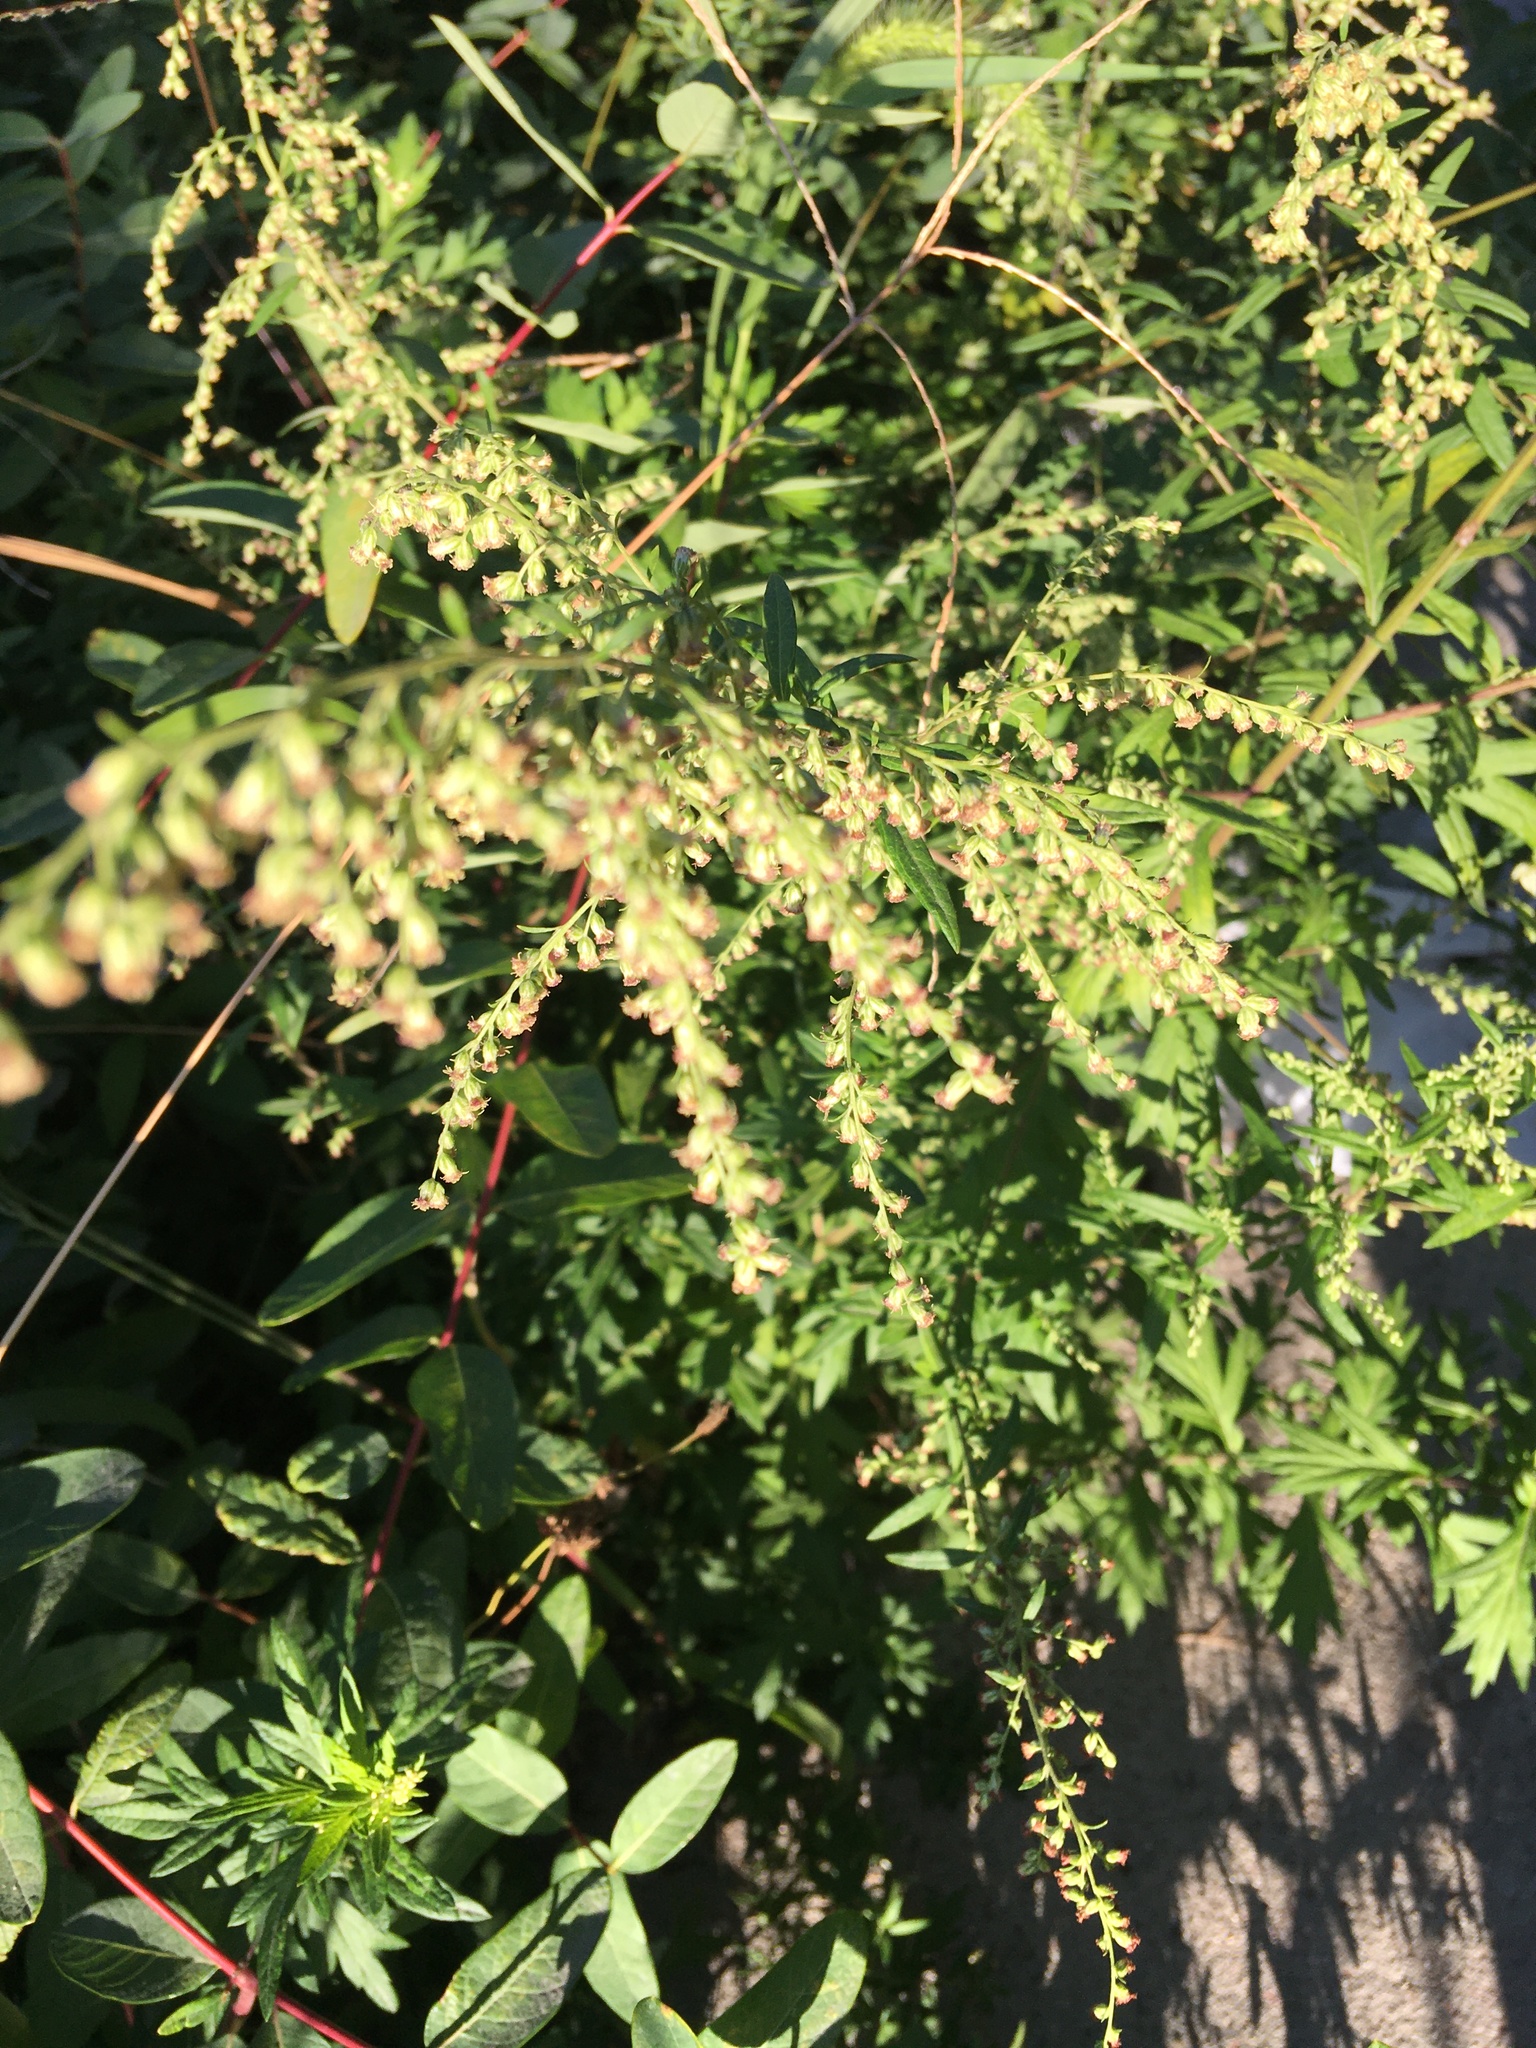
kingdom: Plantae
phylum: Tracheophyta
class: Magnoliopsida
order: Asterales
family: Asteraceae
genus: Artemisia
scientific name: Artemisia vulgaris
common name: Mugwort
